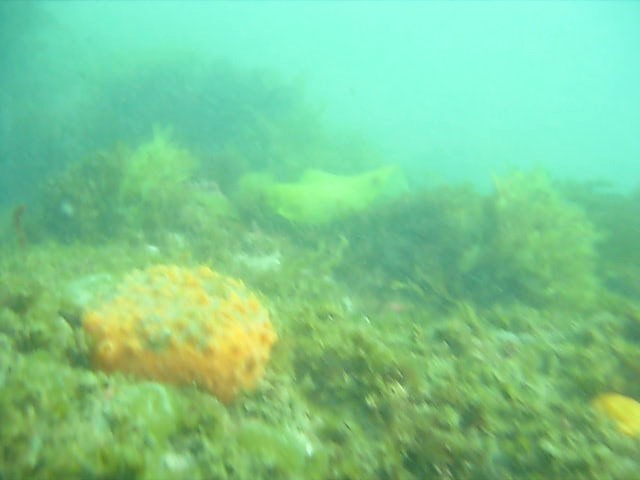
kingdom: Animalia
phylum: Porifera
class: Demospongiae
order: Polymastiida
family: Polymastiidae
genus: Polymastia
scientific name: Polymastia aurantia
